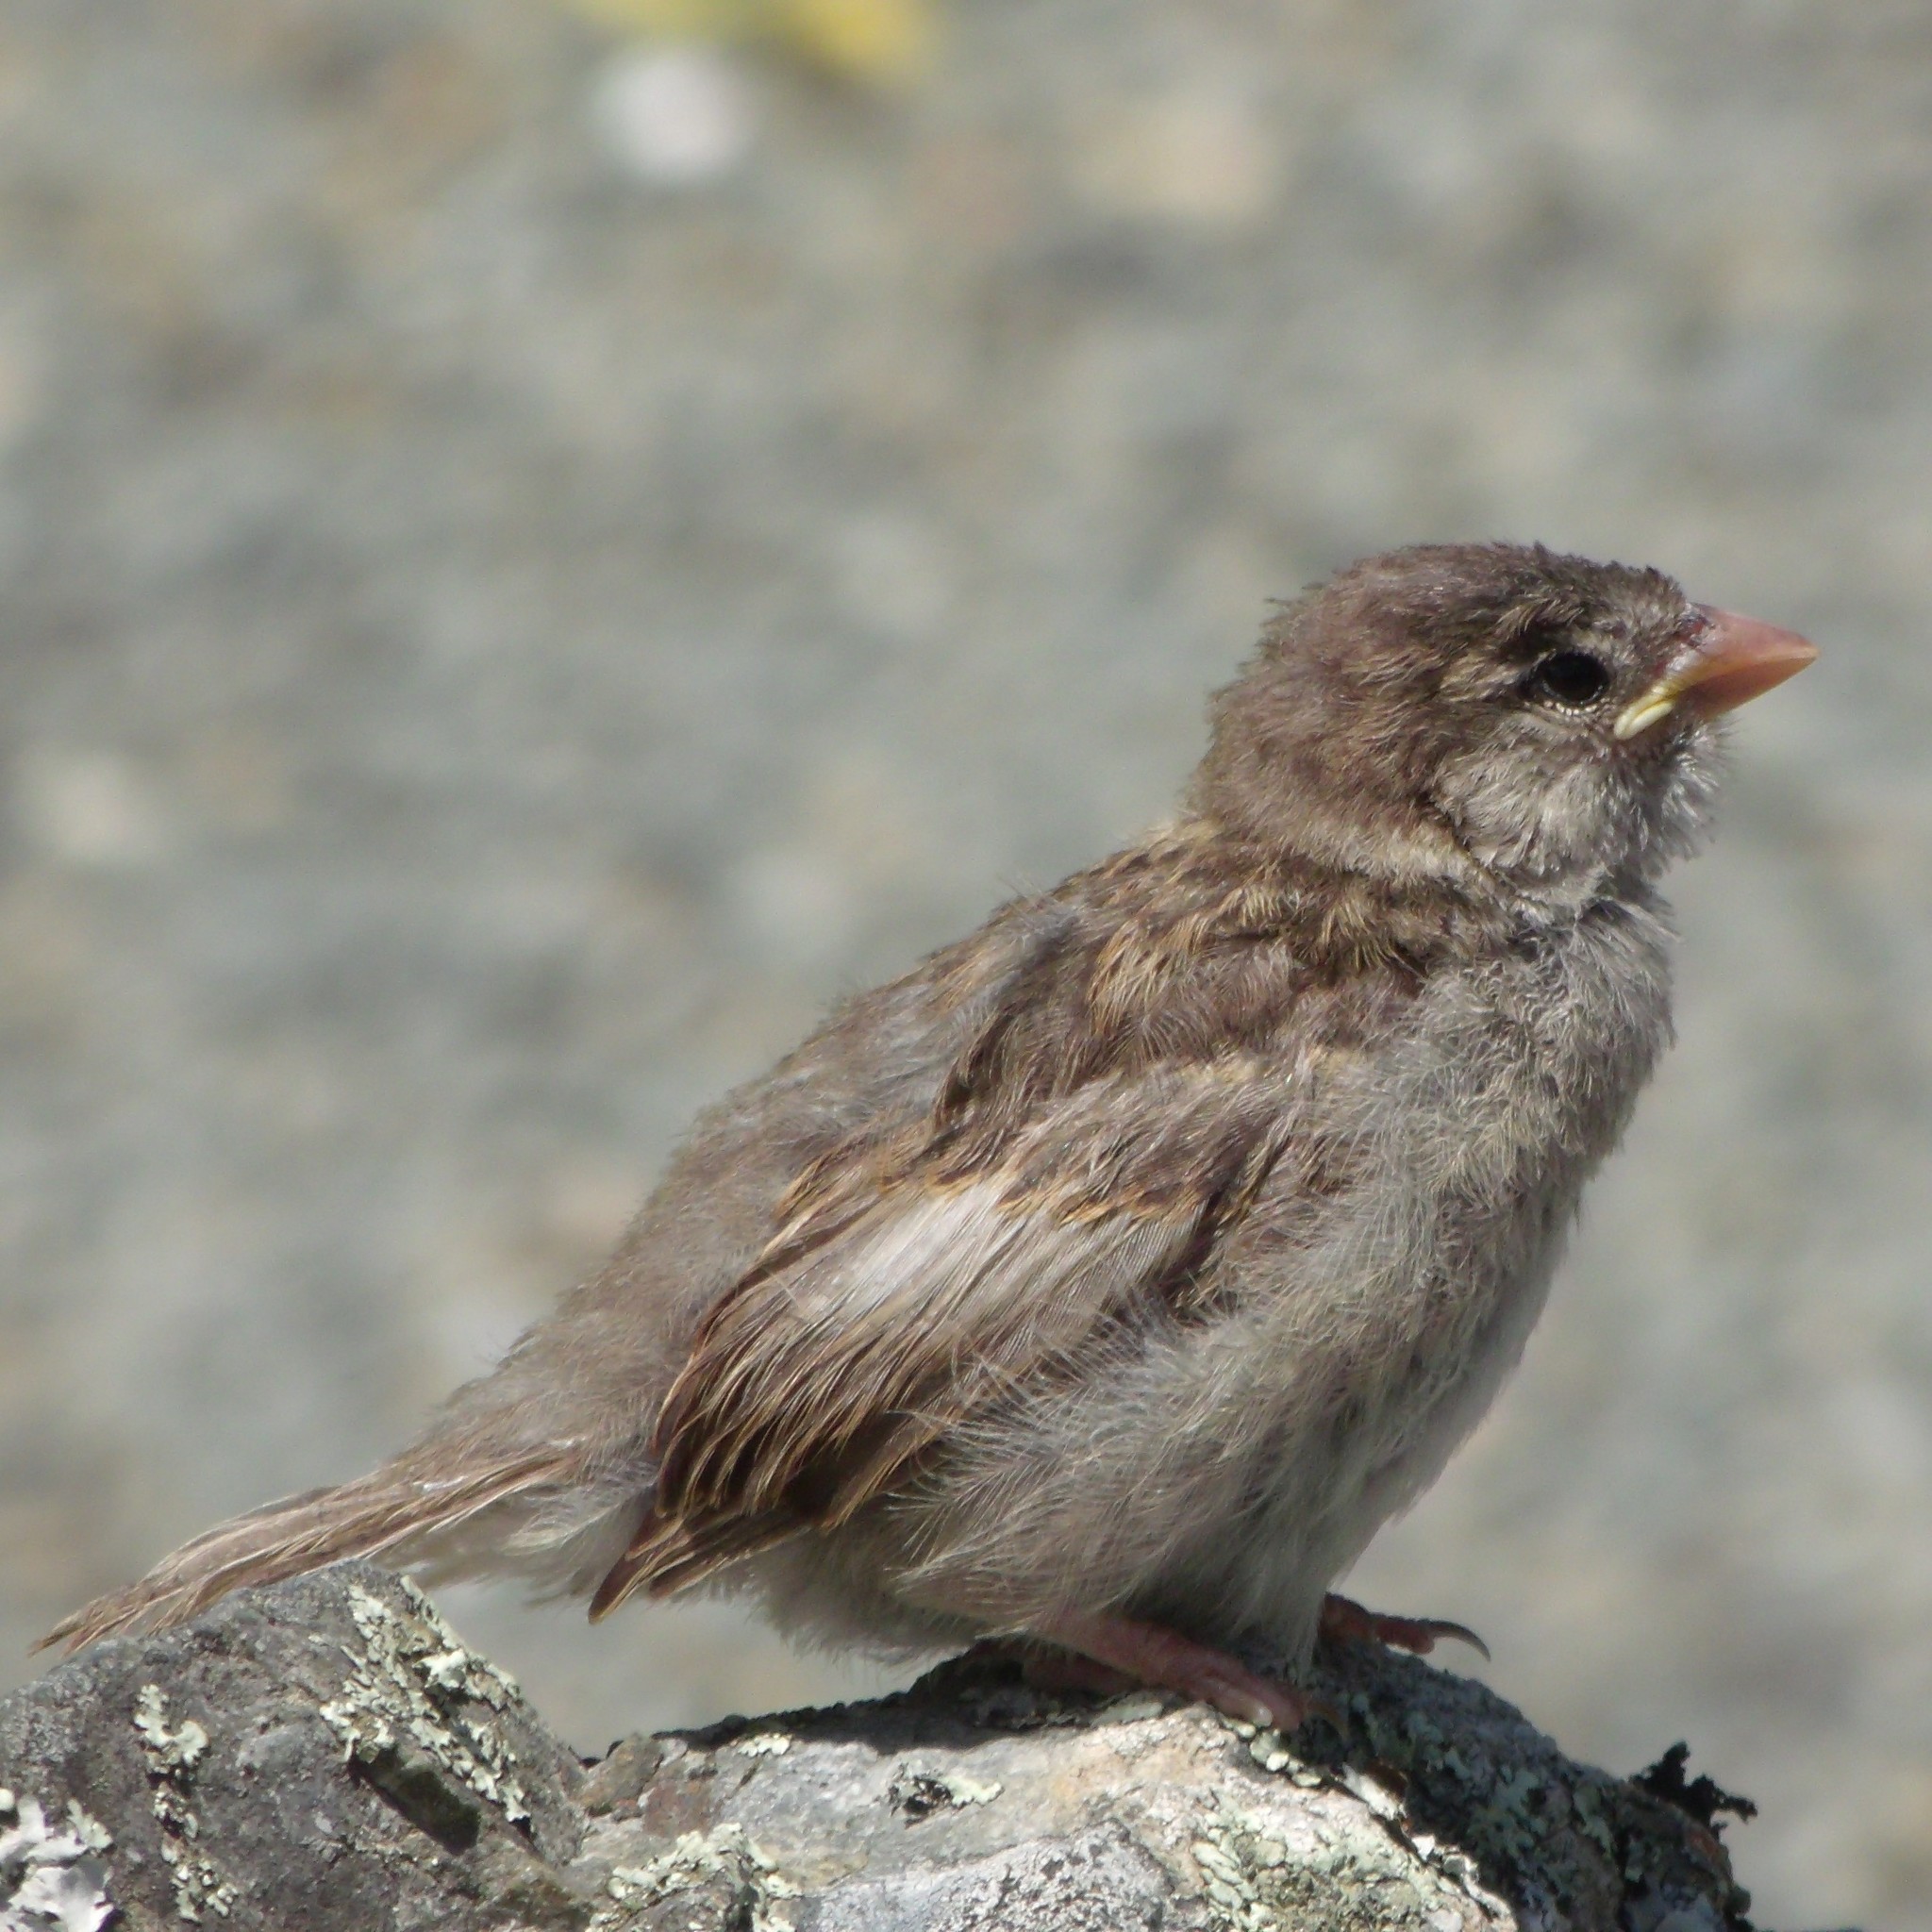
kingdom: Animalia
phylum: Chordata
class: Aves
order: Passeriformes
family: Passeridae
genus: Passer
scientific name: Passer domesticus
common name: House sparrow
